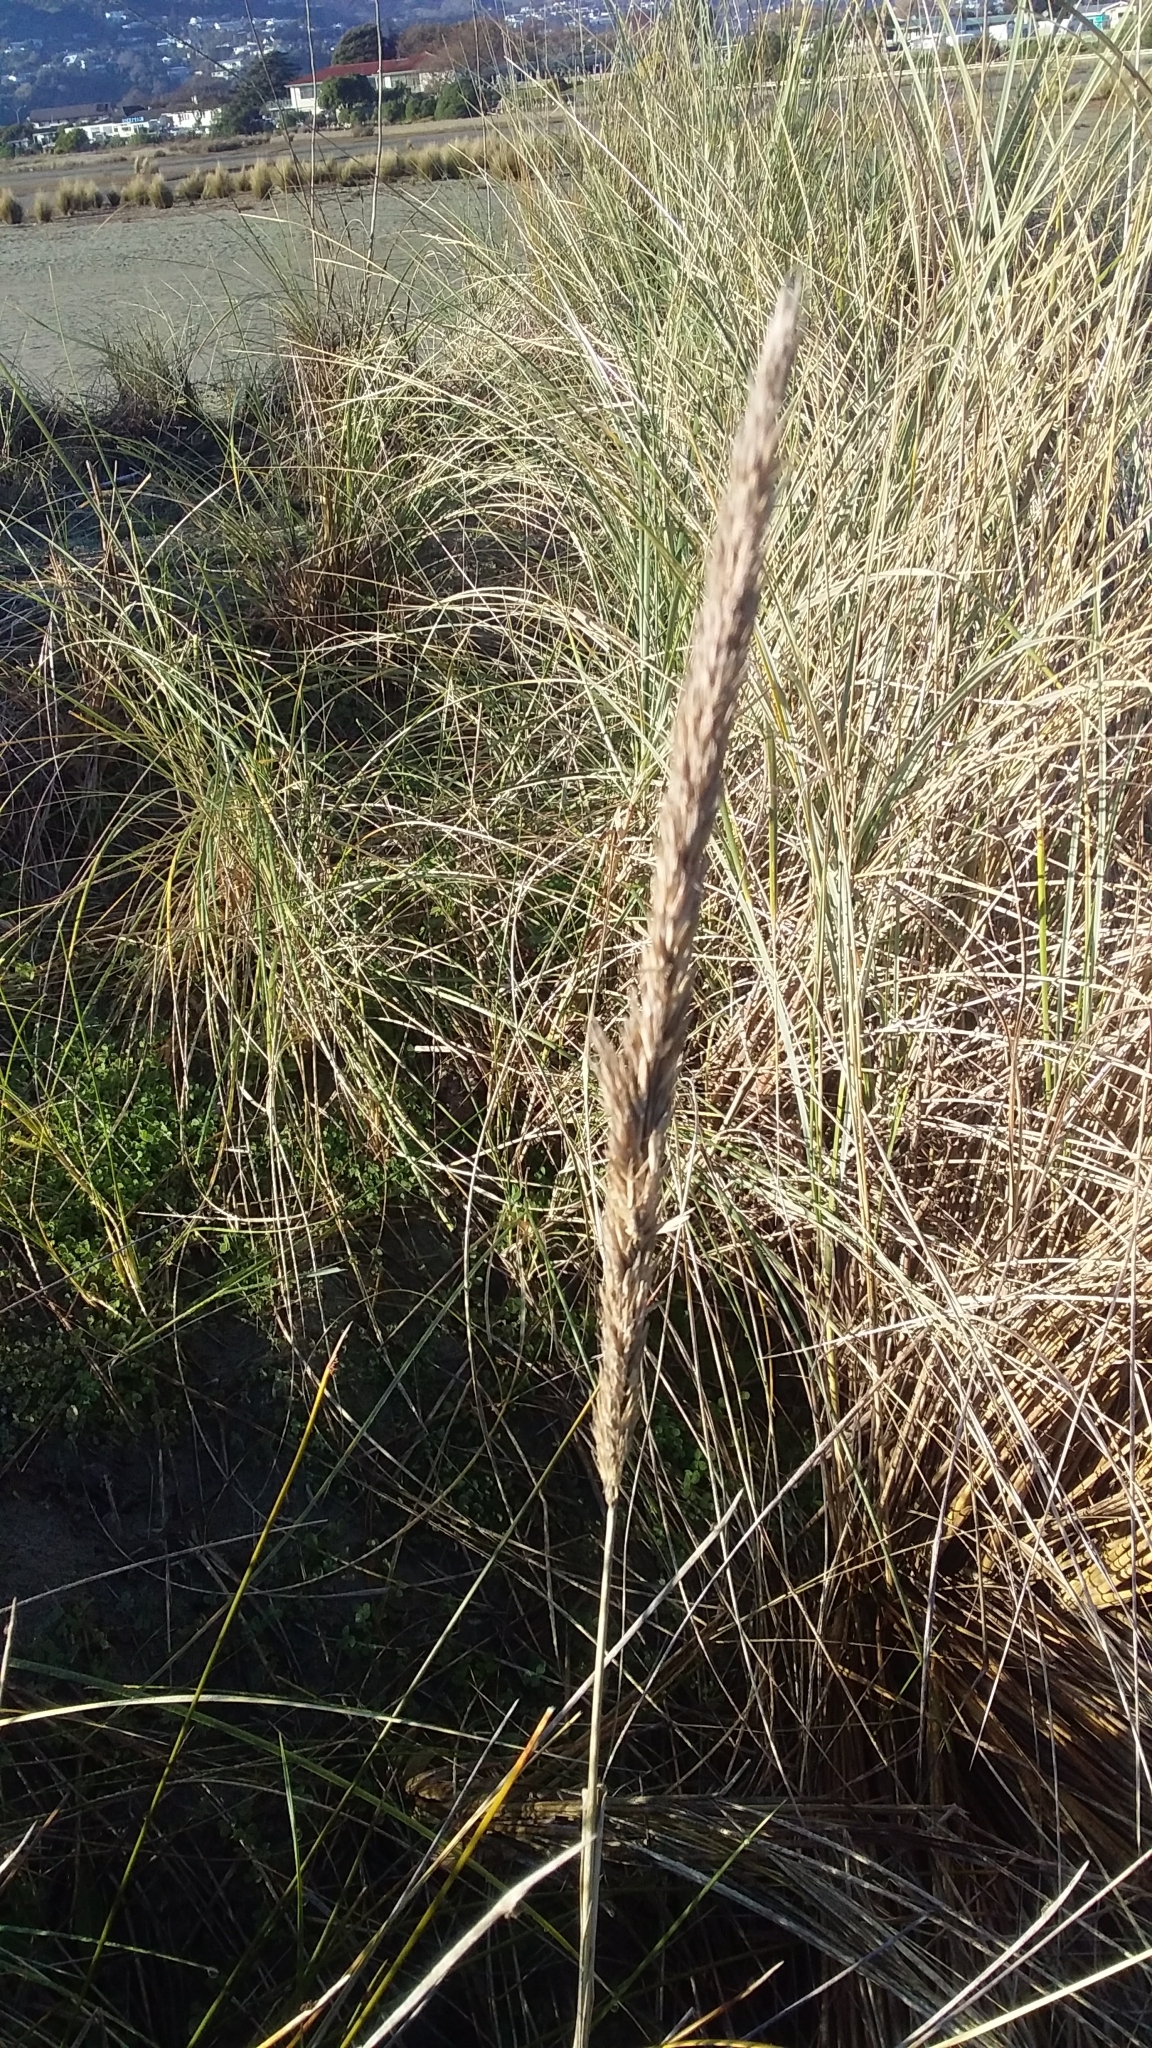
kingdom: Plantae
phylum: Tracheophyta
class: Liliopsida
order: Poales
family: Poaceae
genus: Calamagrostis
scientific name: Calamagrostis arenaria
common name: European beachgrass
